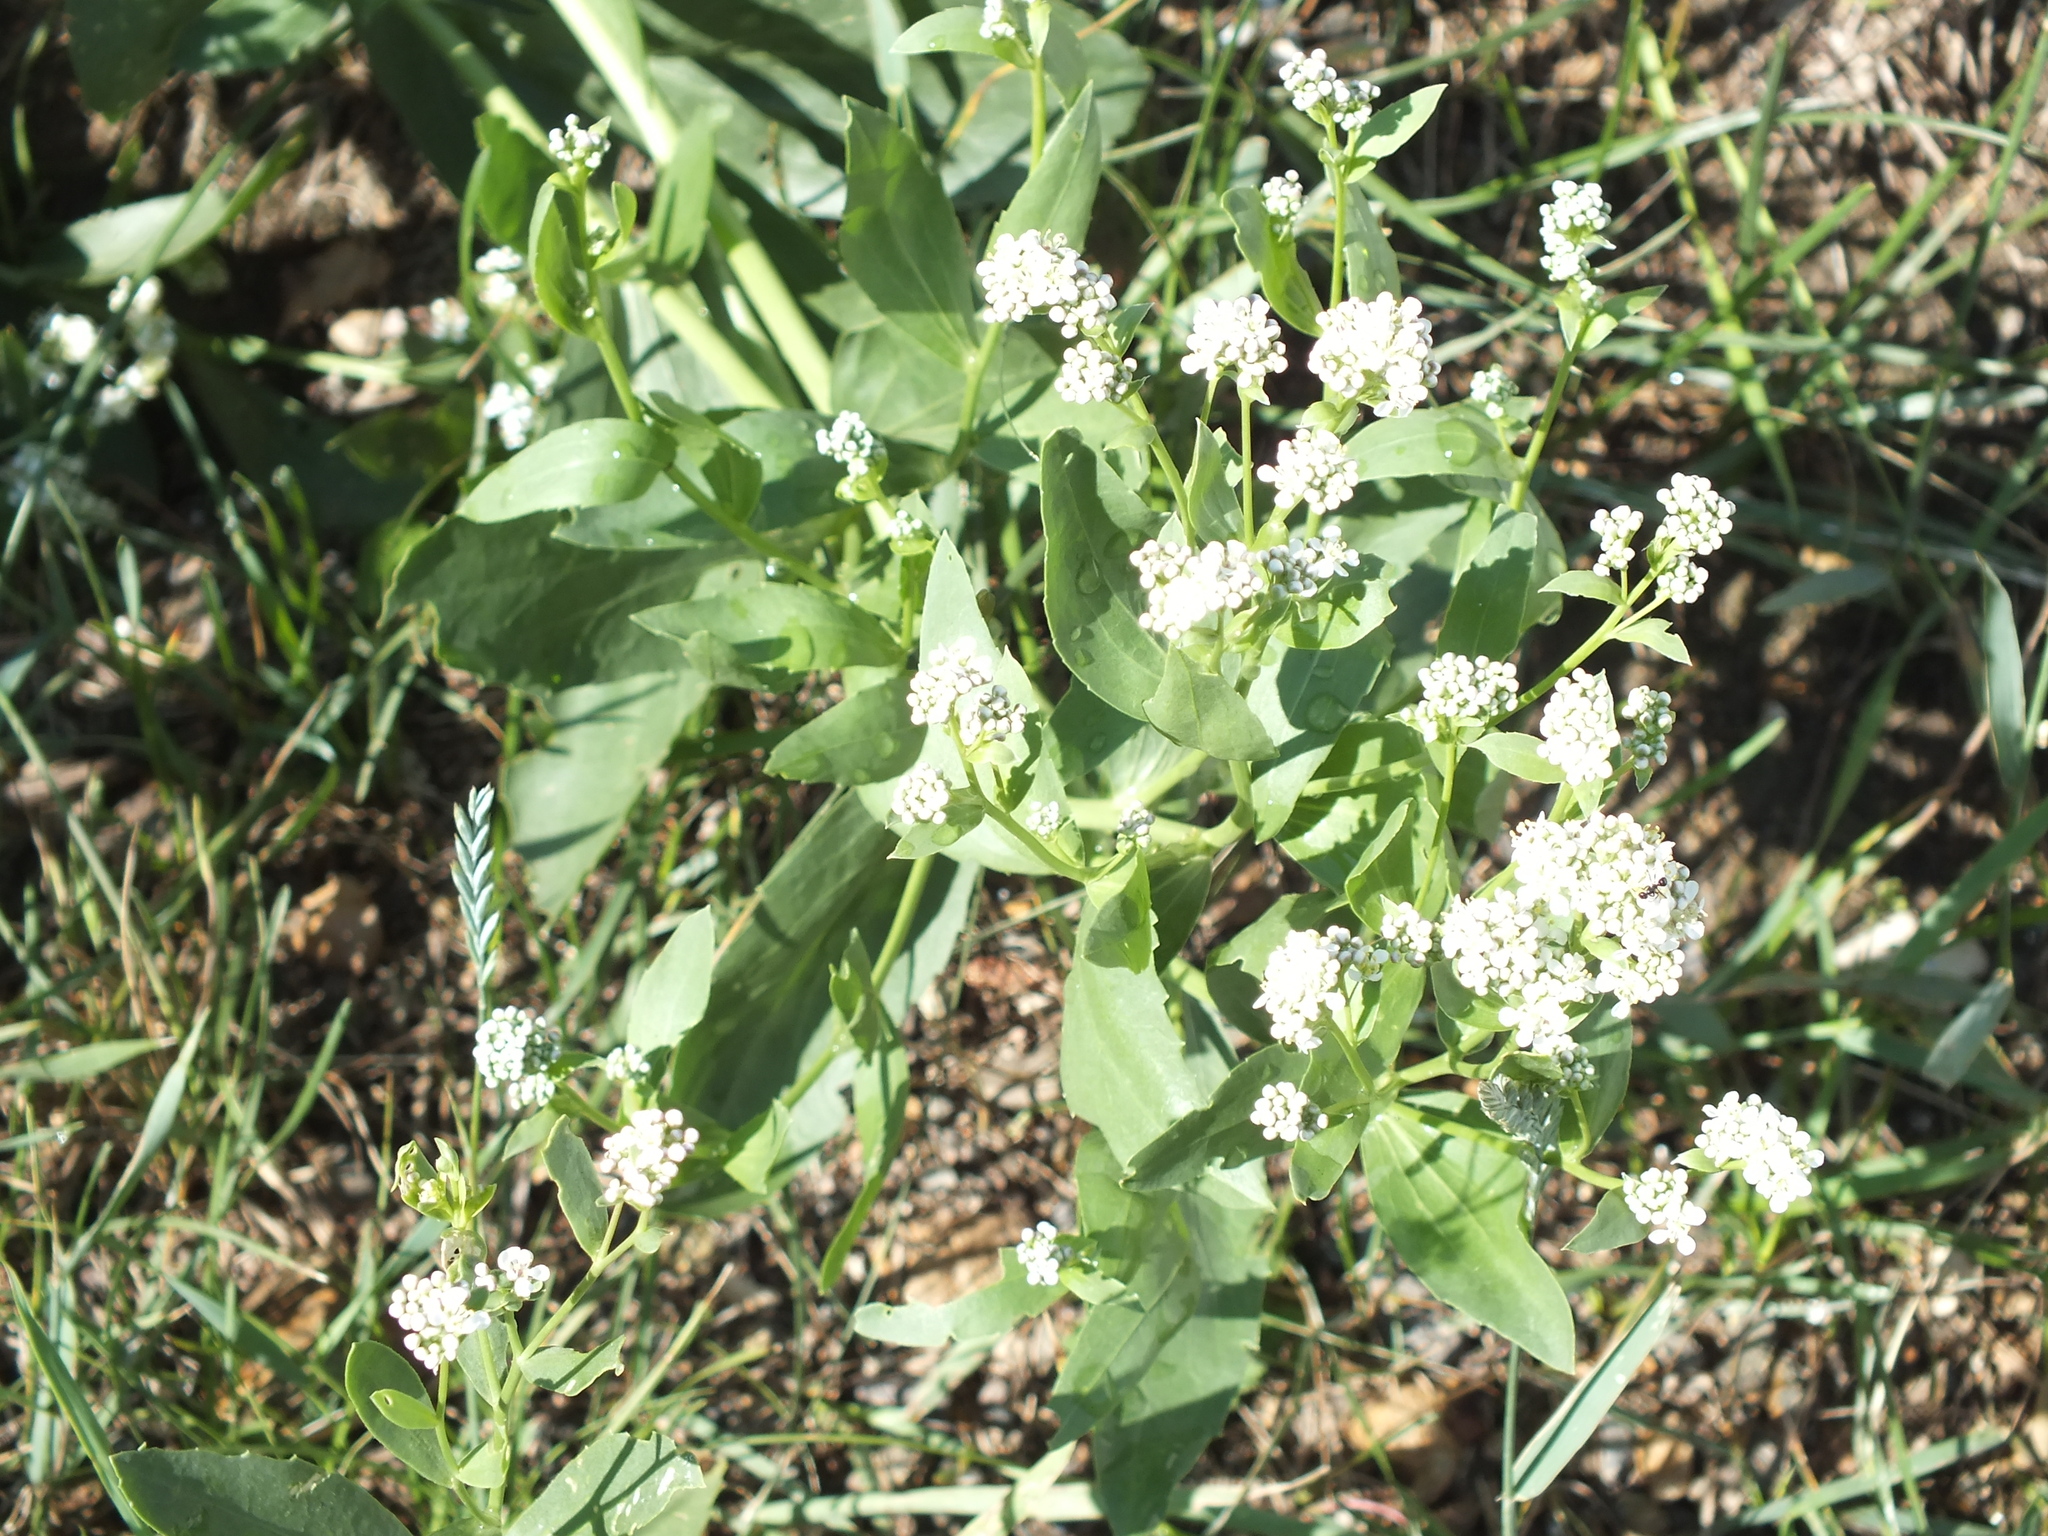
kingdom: Plantae
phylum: Tracheophyta
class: Magnoliopsida
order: Brassicales
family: Brassicaceae
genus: Lepidium
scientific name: Lepidium latifolium
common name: Dittander
